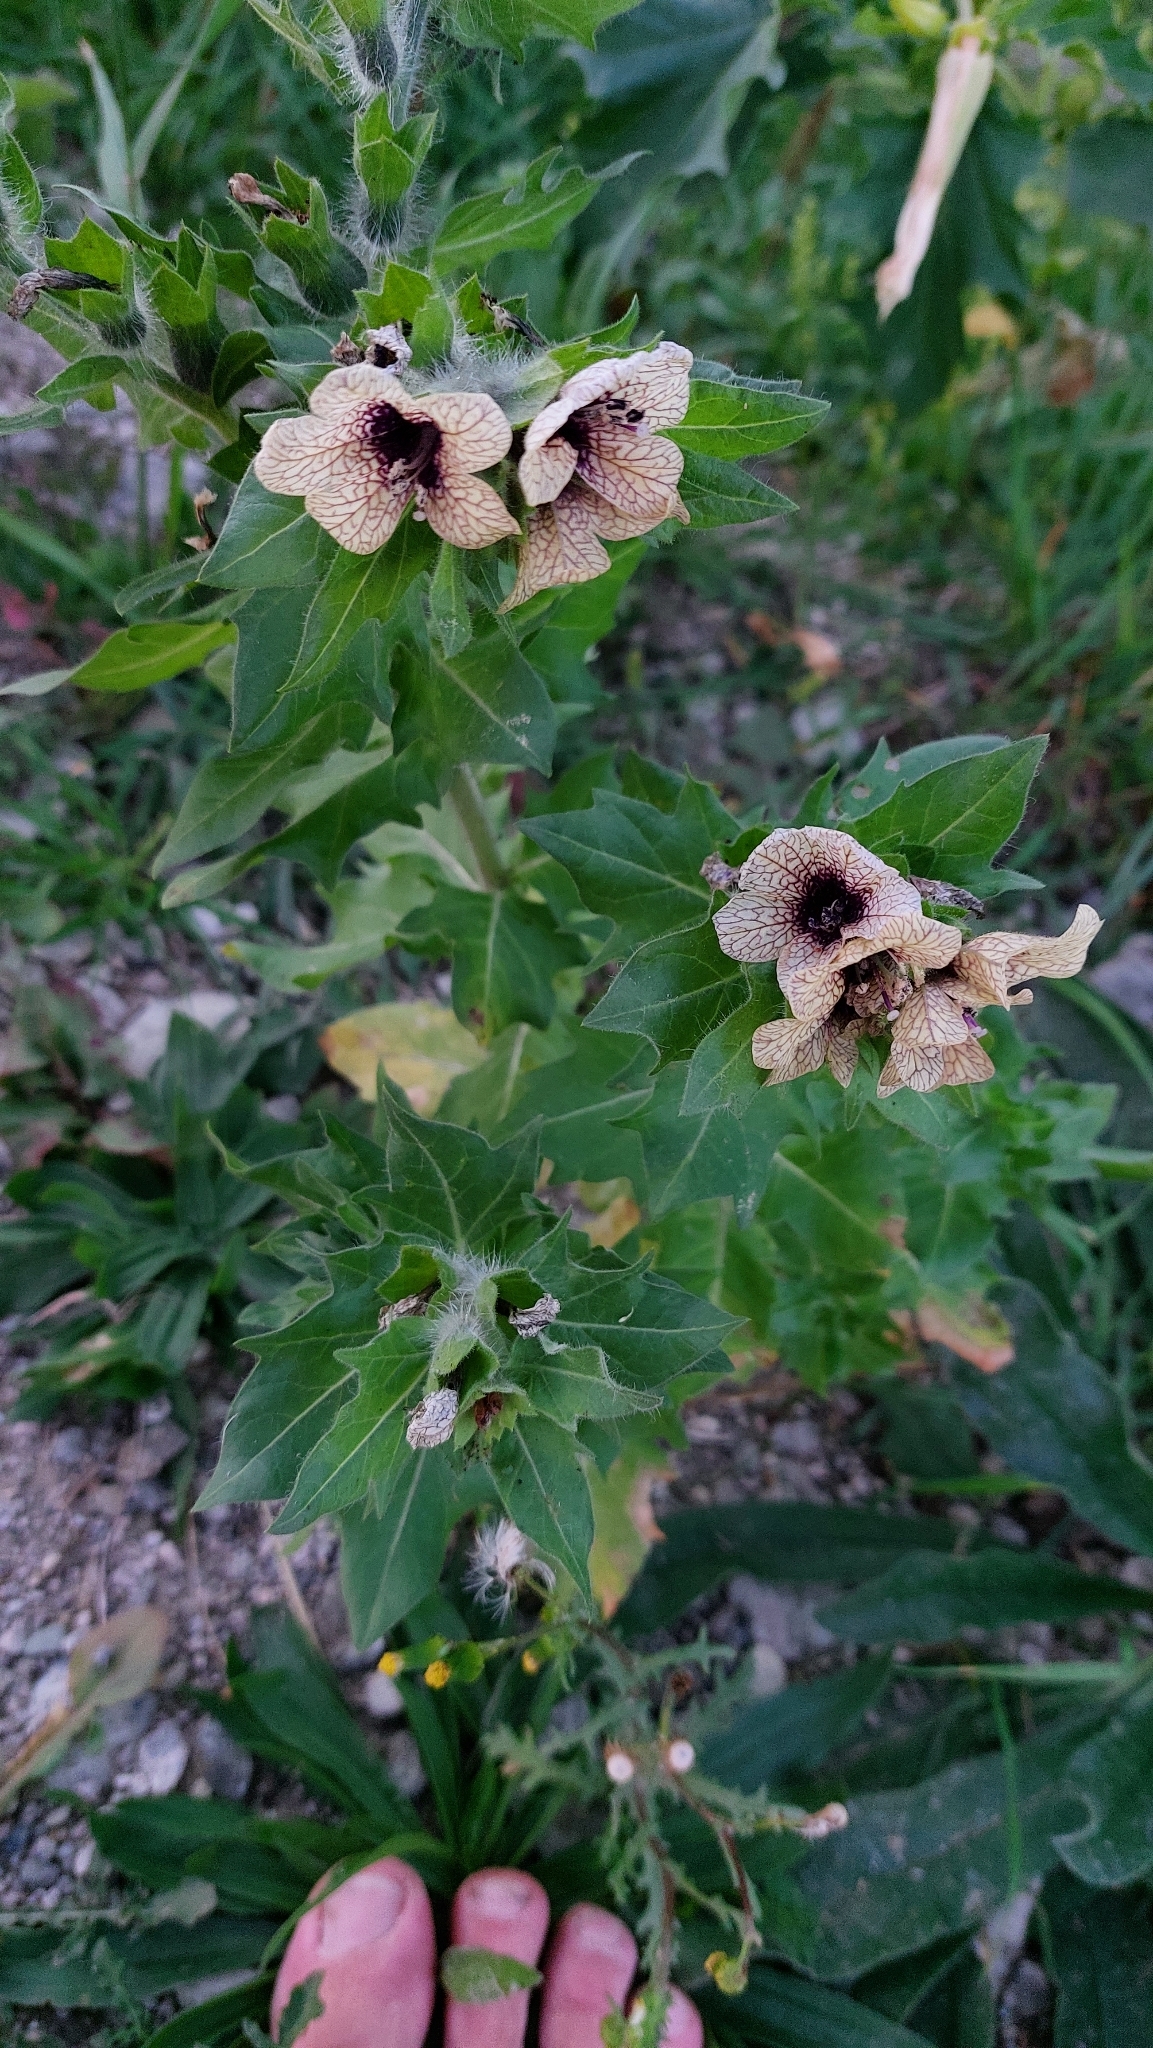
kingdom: Plantae
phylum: Tracheophyta
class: Magnoliopsida
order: Solanales
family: Solanaceae
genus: Hyoscyamus
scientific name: Hyoscyamus niger
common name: Henbane
